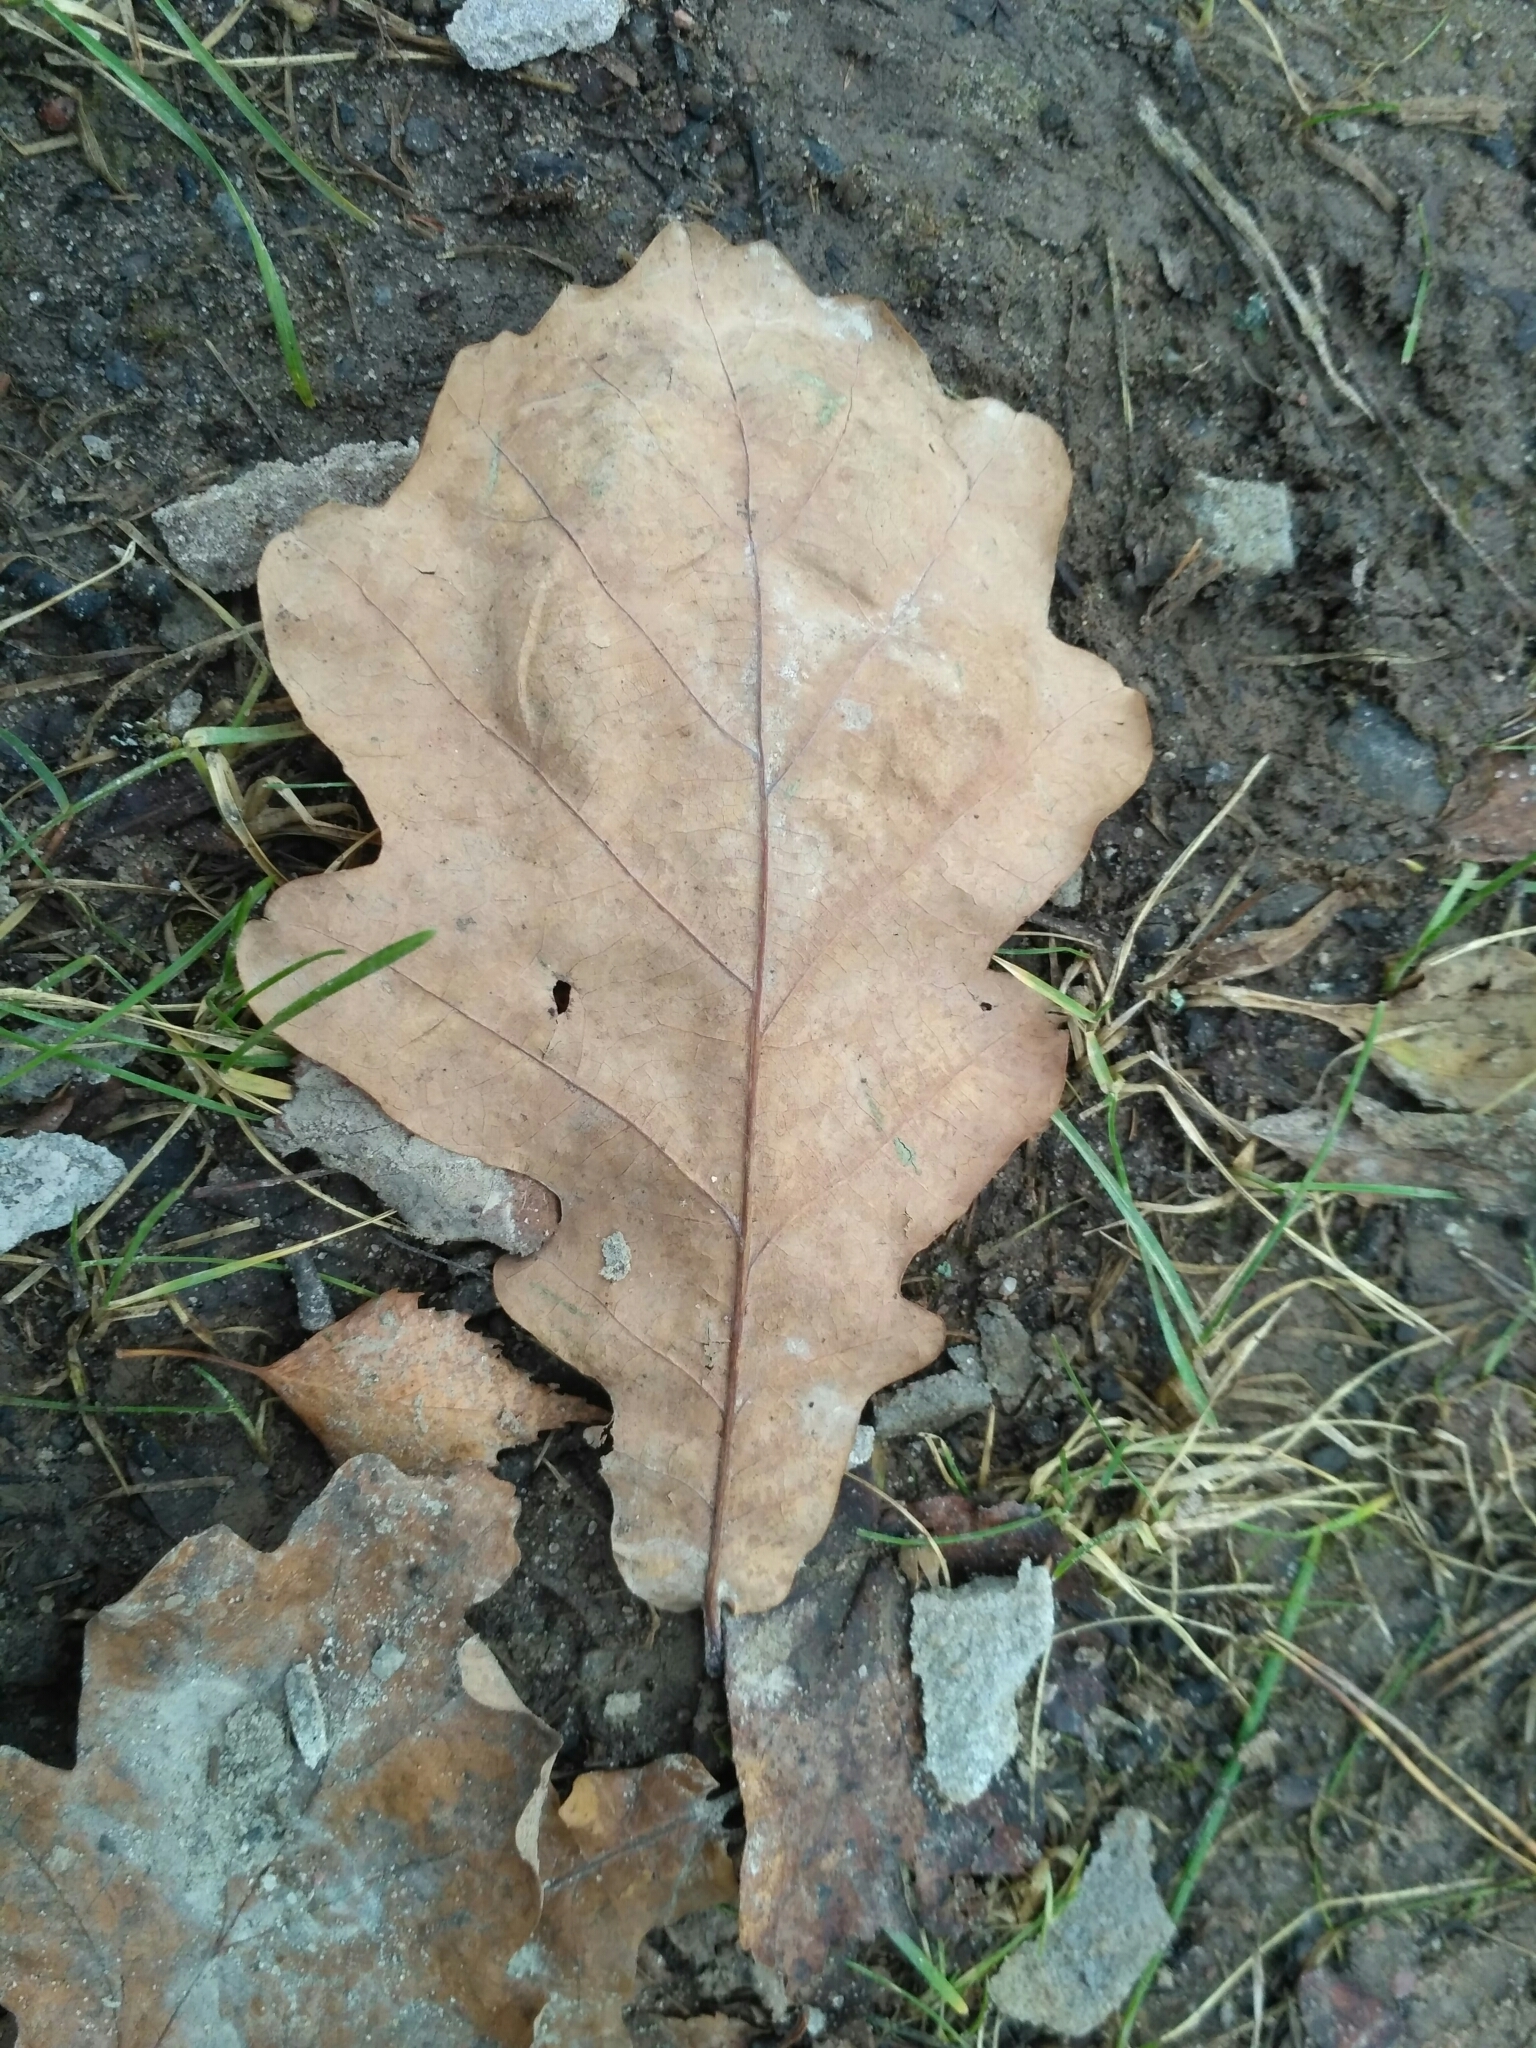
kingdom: Plantae
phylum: Tracheophyta
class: Magnoliopsida
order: Fagales
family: Fagaceae
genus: Quercus
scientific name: Quercus robur
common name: Pedunculate oak
